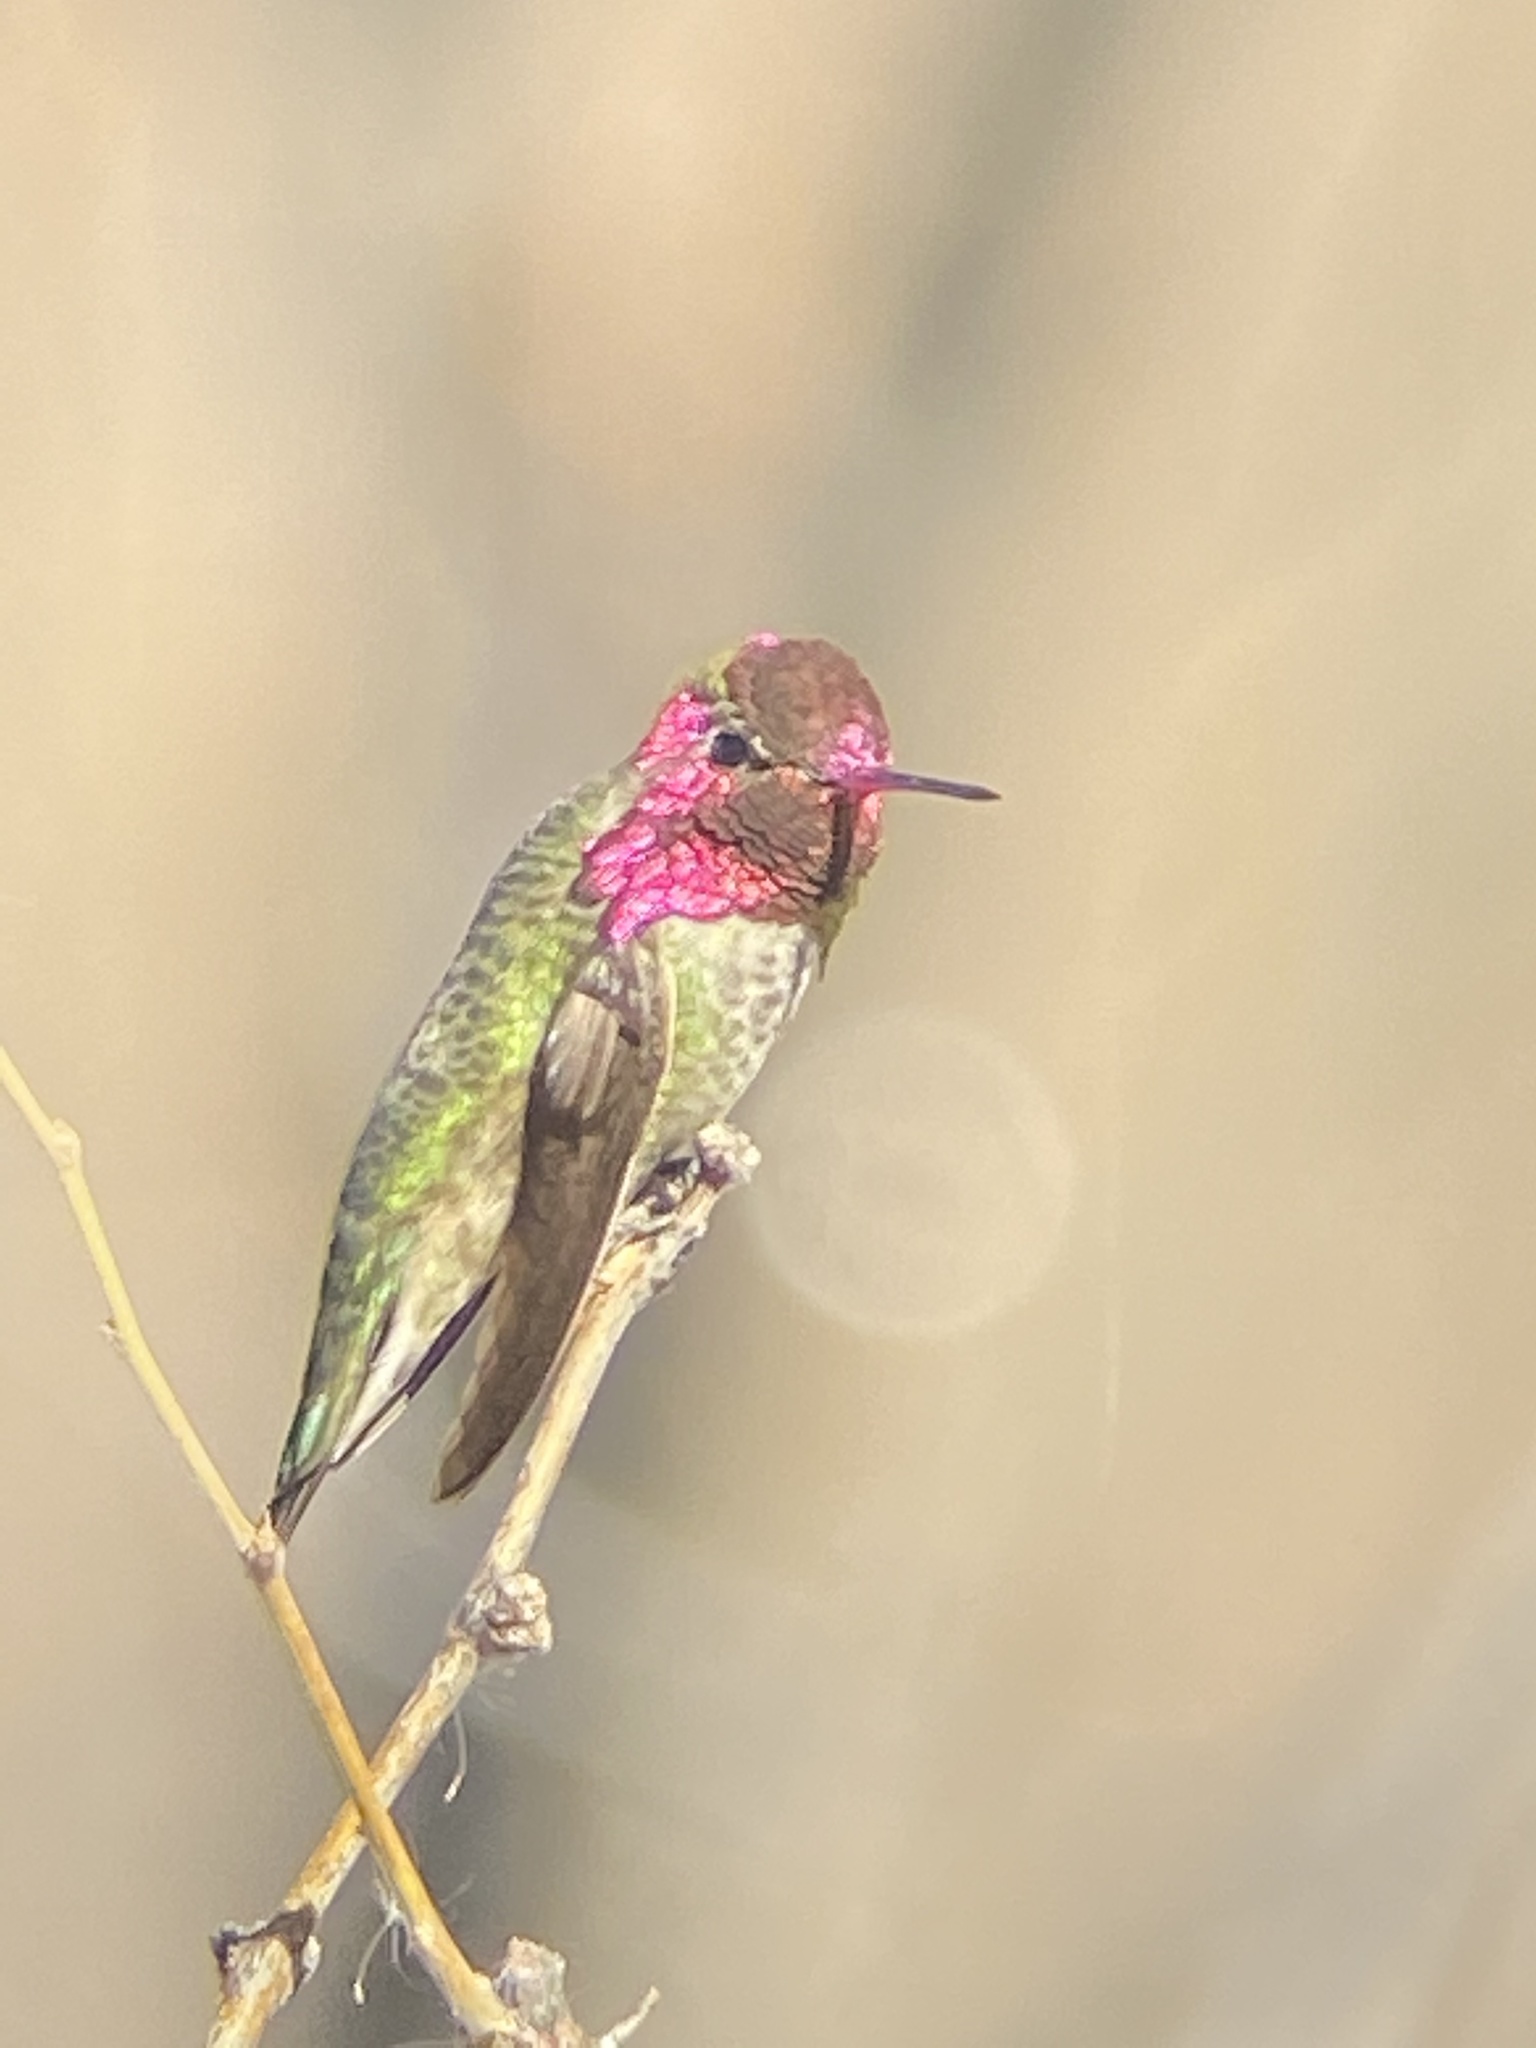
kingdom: Animalia
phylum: Chordata
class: Aves
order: Apodiformes
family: Trochilidae
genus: Calypte
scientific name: Calypte anna
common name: Anna's hummingbird
